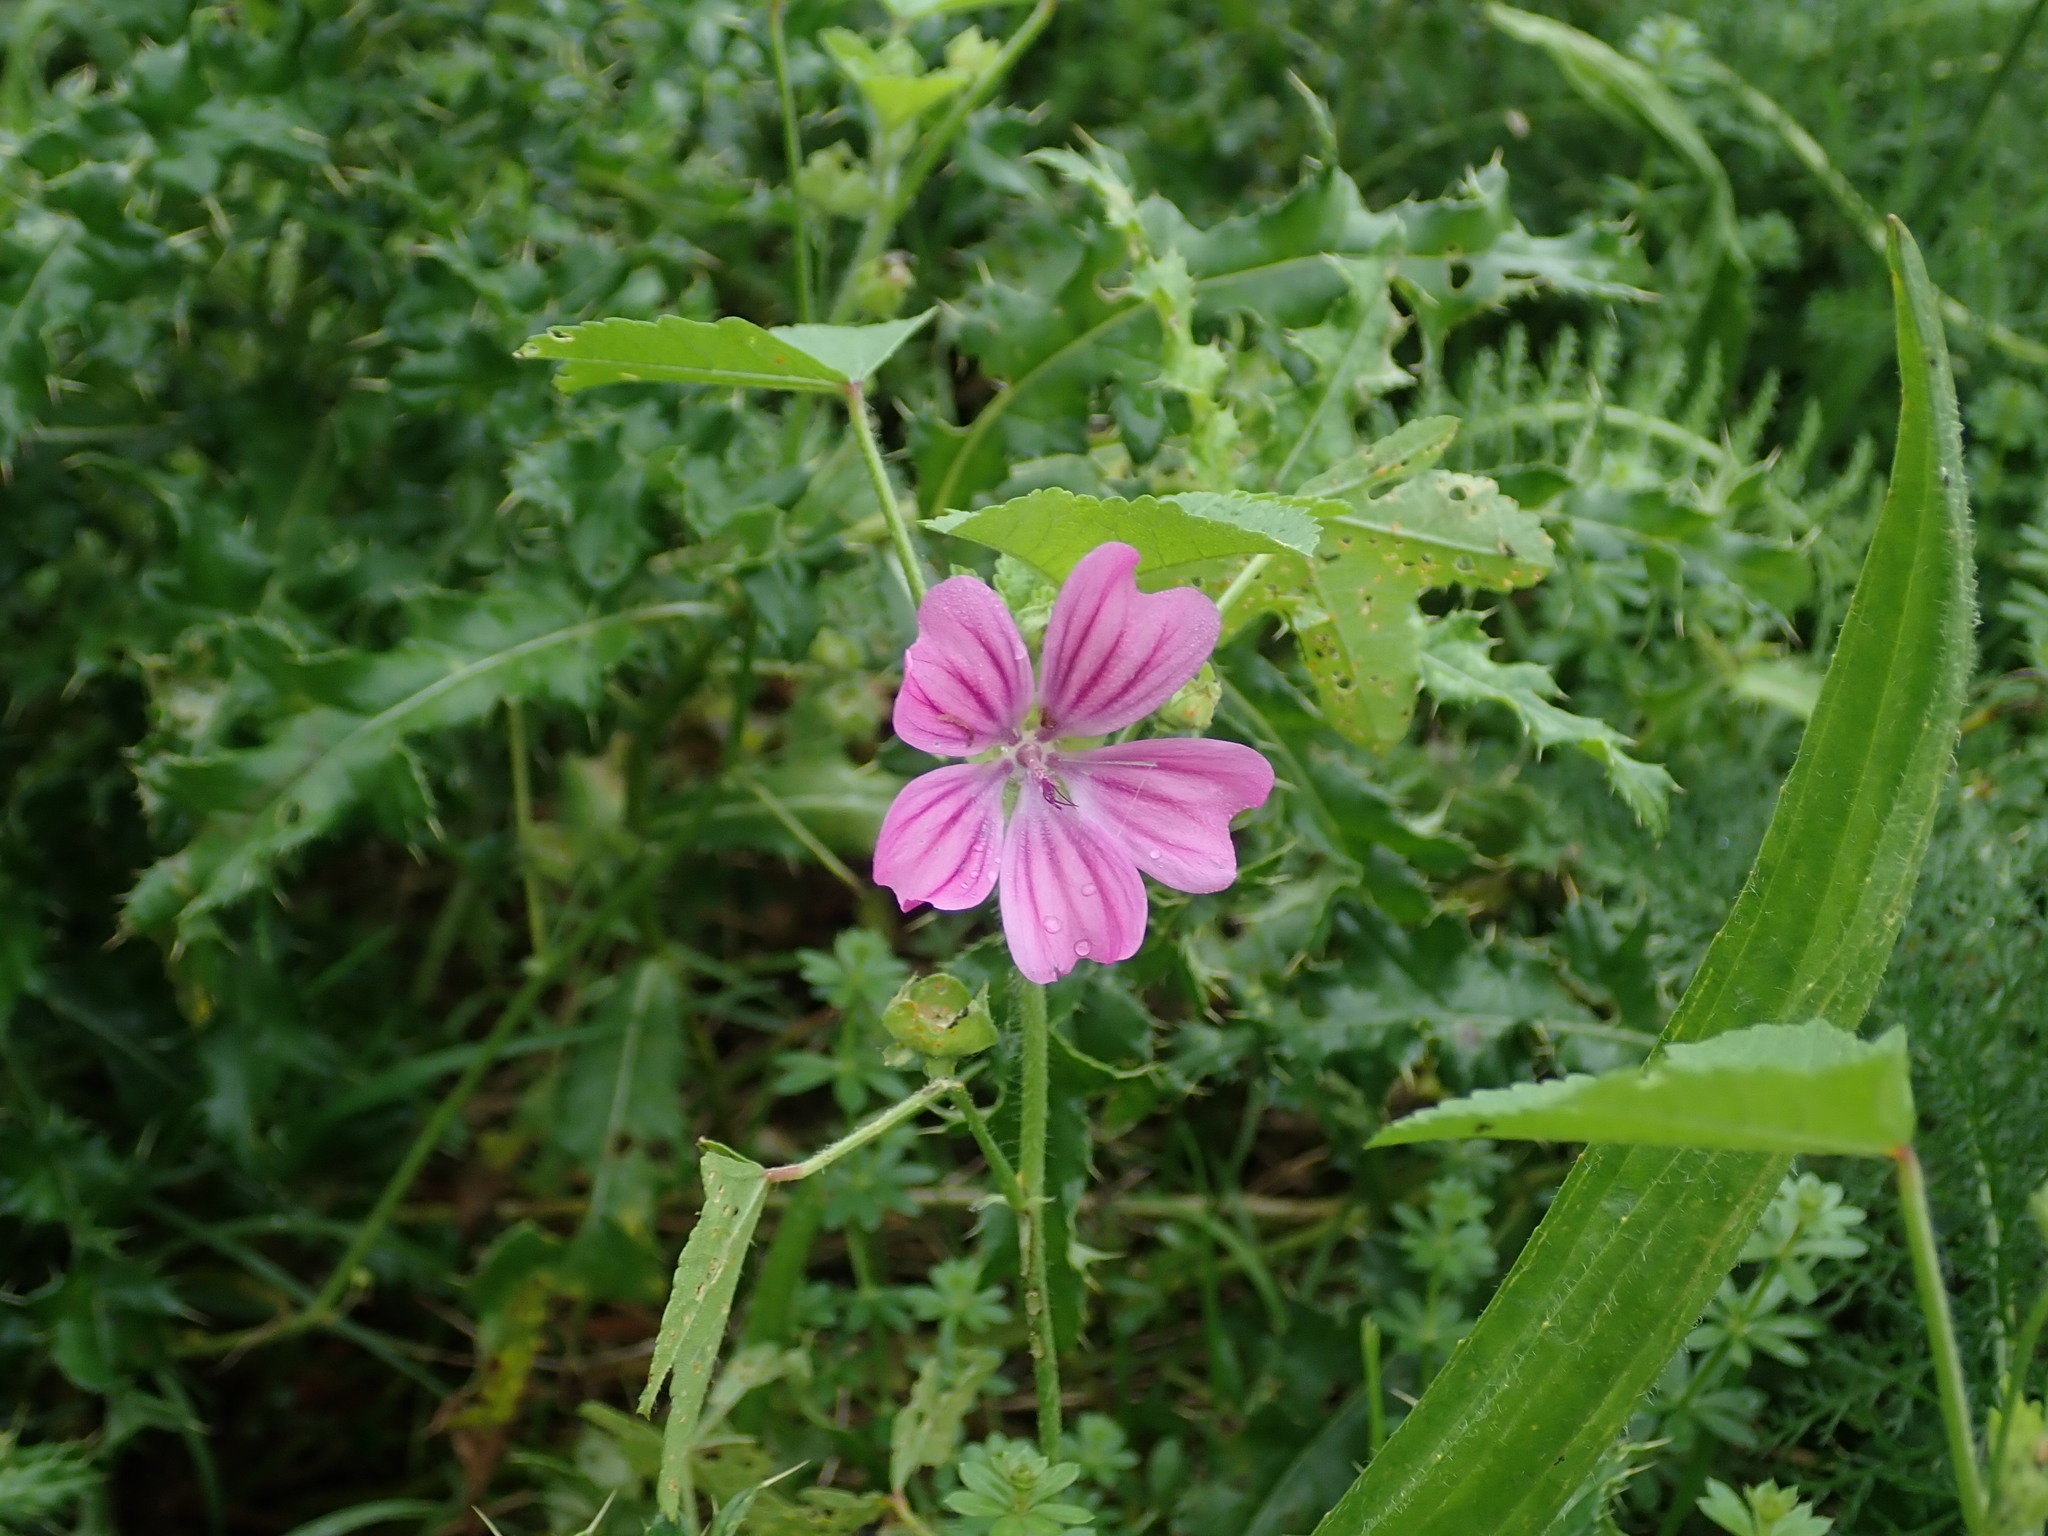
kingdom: Plantae
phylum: Tracheophyta
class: Magnoliopsida
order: Malvales
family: Malvaceae
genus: Malva
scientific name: Malva sylvestris
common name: Common mallow
